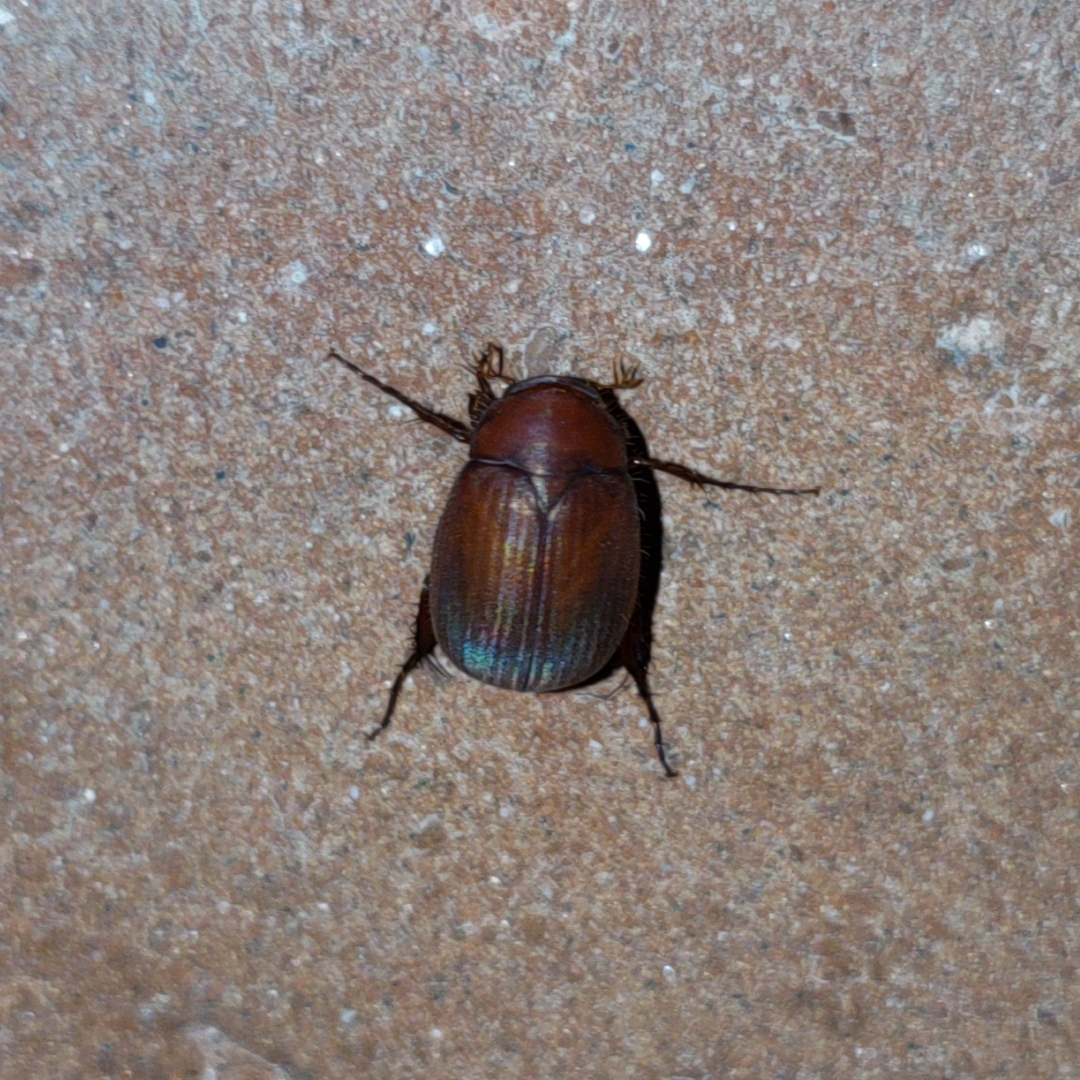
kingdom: Animalia
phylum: Arthropoda
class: Insecta
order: Coleoptera
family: Scarabaeidae
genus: Maladera
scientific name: Maladera formosae
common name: Asiatic garden beetle
